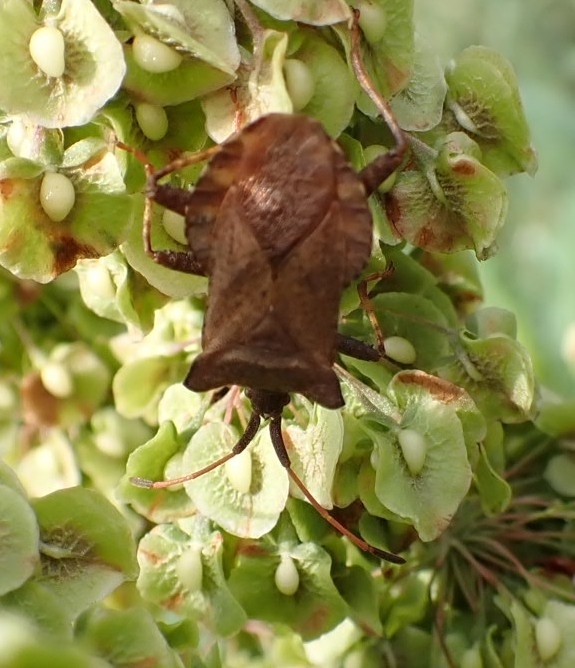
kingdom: Animalia
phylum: Arthropoda
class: Insecta
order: Hemiptera
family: Coreidae
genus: Coreus
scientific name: Coreus marginatus
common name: Dock bug
